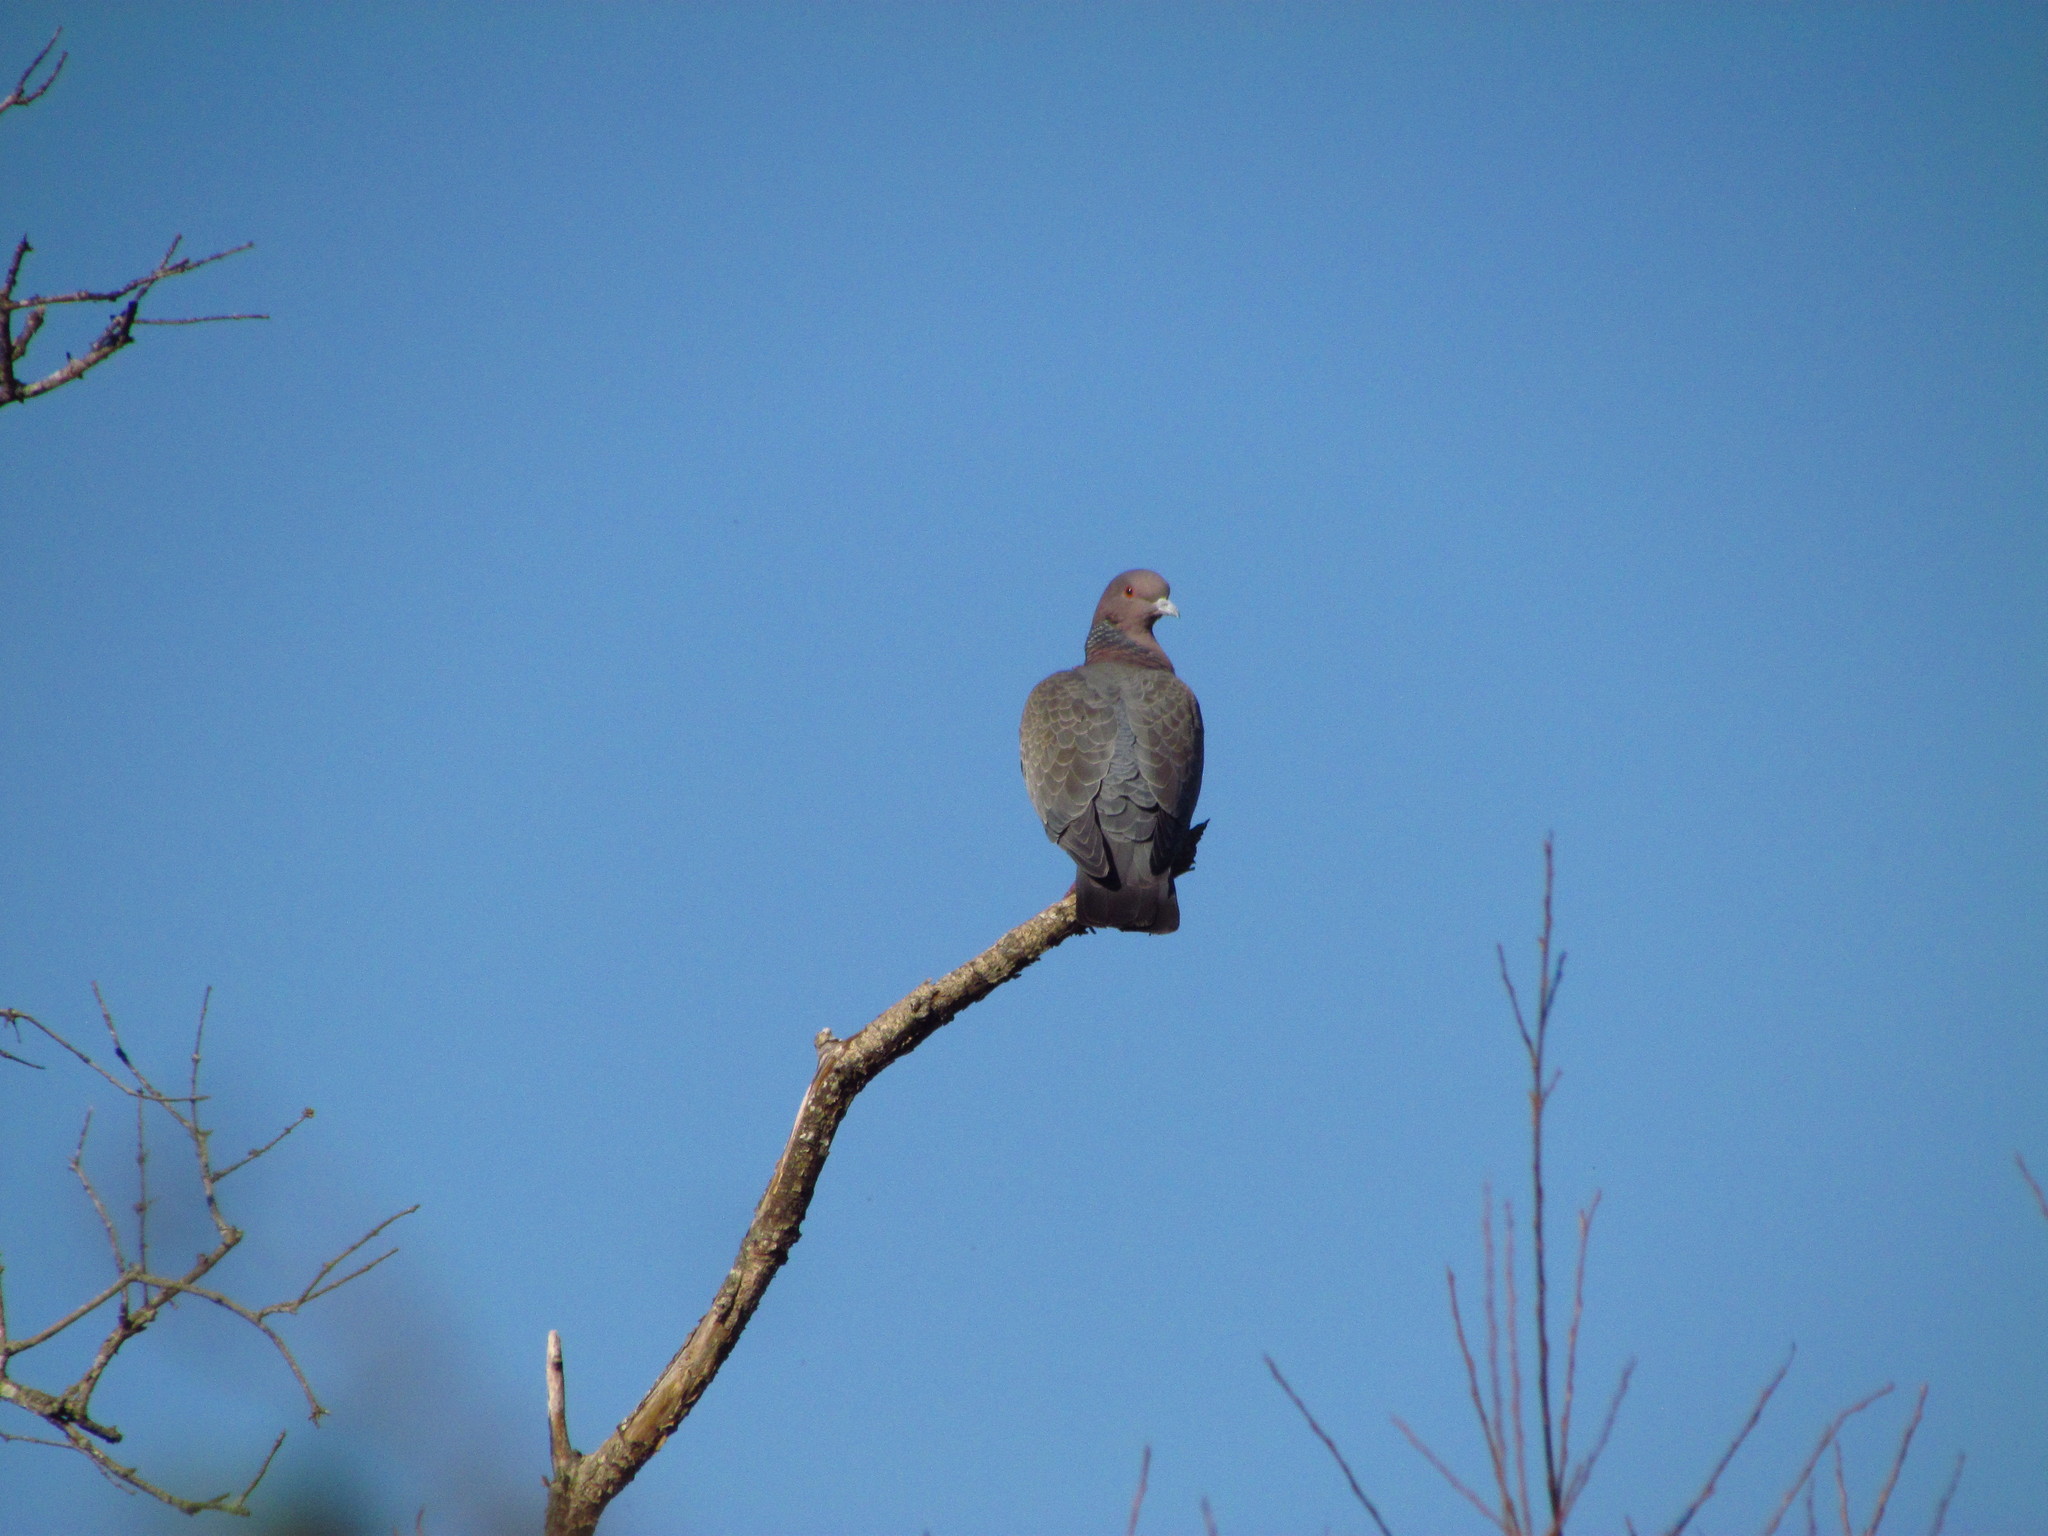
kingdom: Animalia
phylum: Chordata
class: Aves
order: Columbiformes
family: Columbidae
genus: Patagioenas
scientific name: Patagioenas picazuro
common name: Picazuro pigeon
